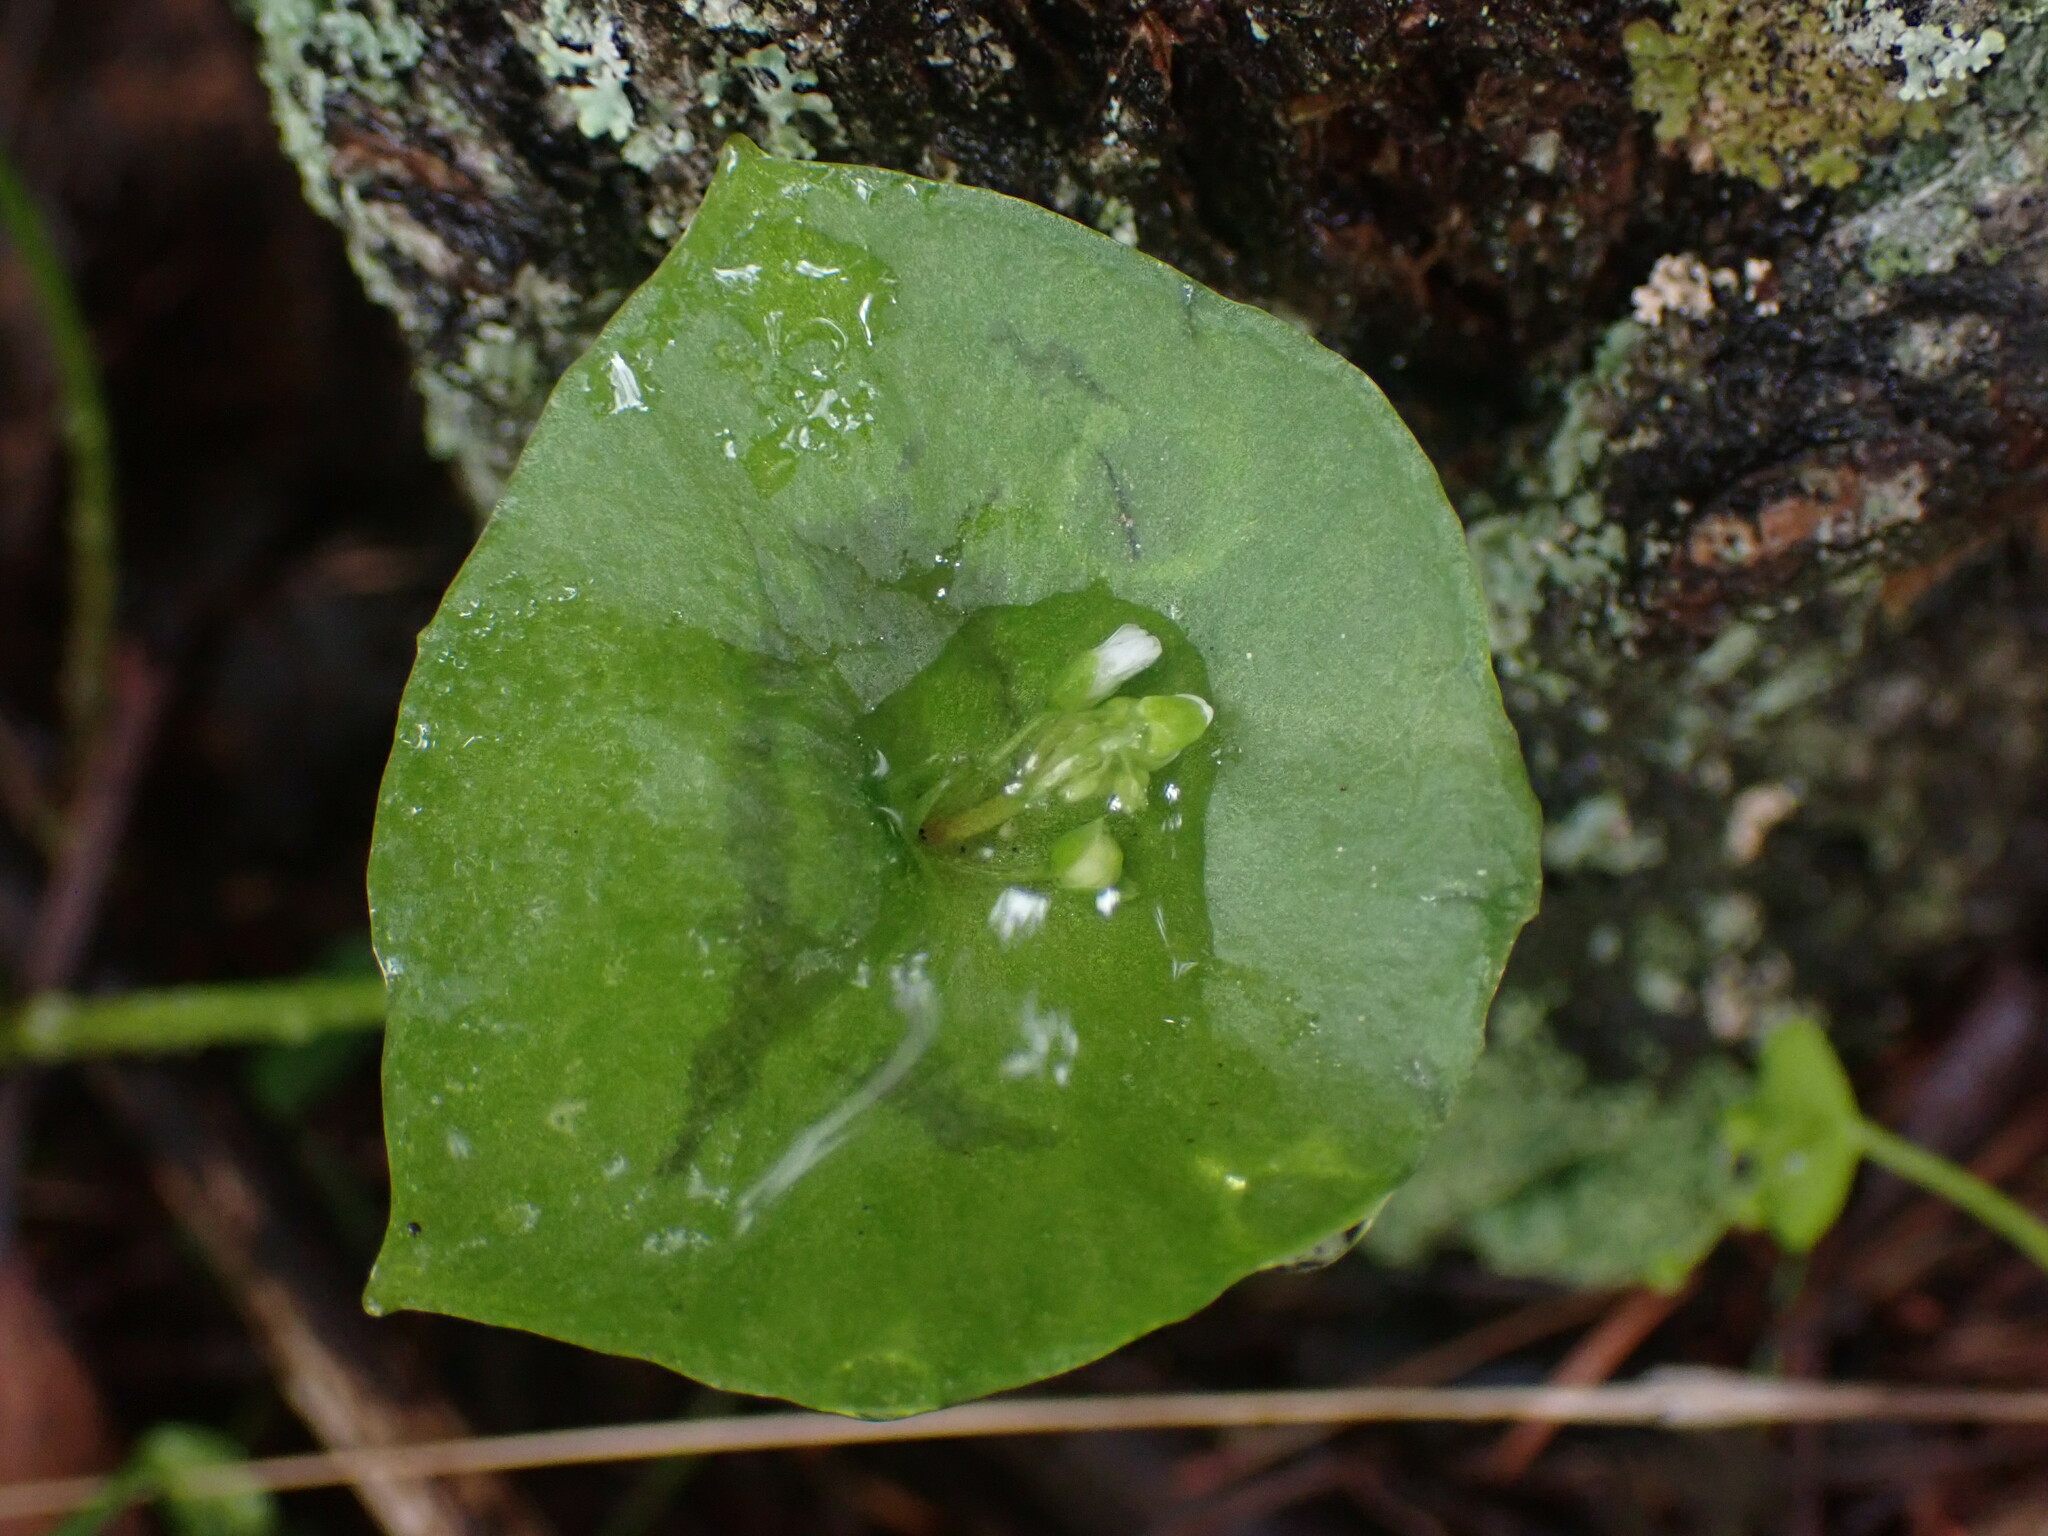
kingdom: Plantae
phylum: Tracheophyta
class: Magnoliopsida
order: Caryophyllales
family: Montiaceae
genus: Claytonia
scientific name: Claytonia perfoliata
